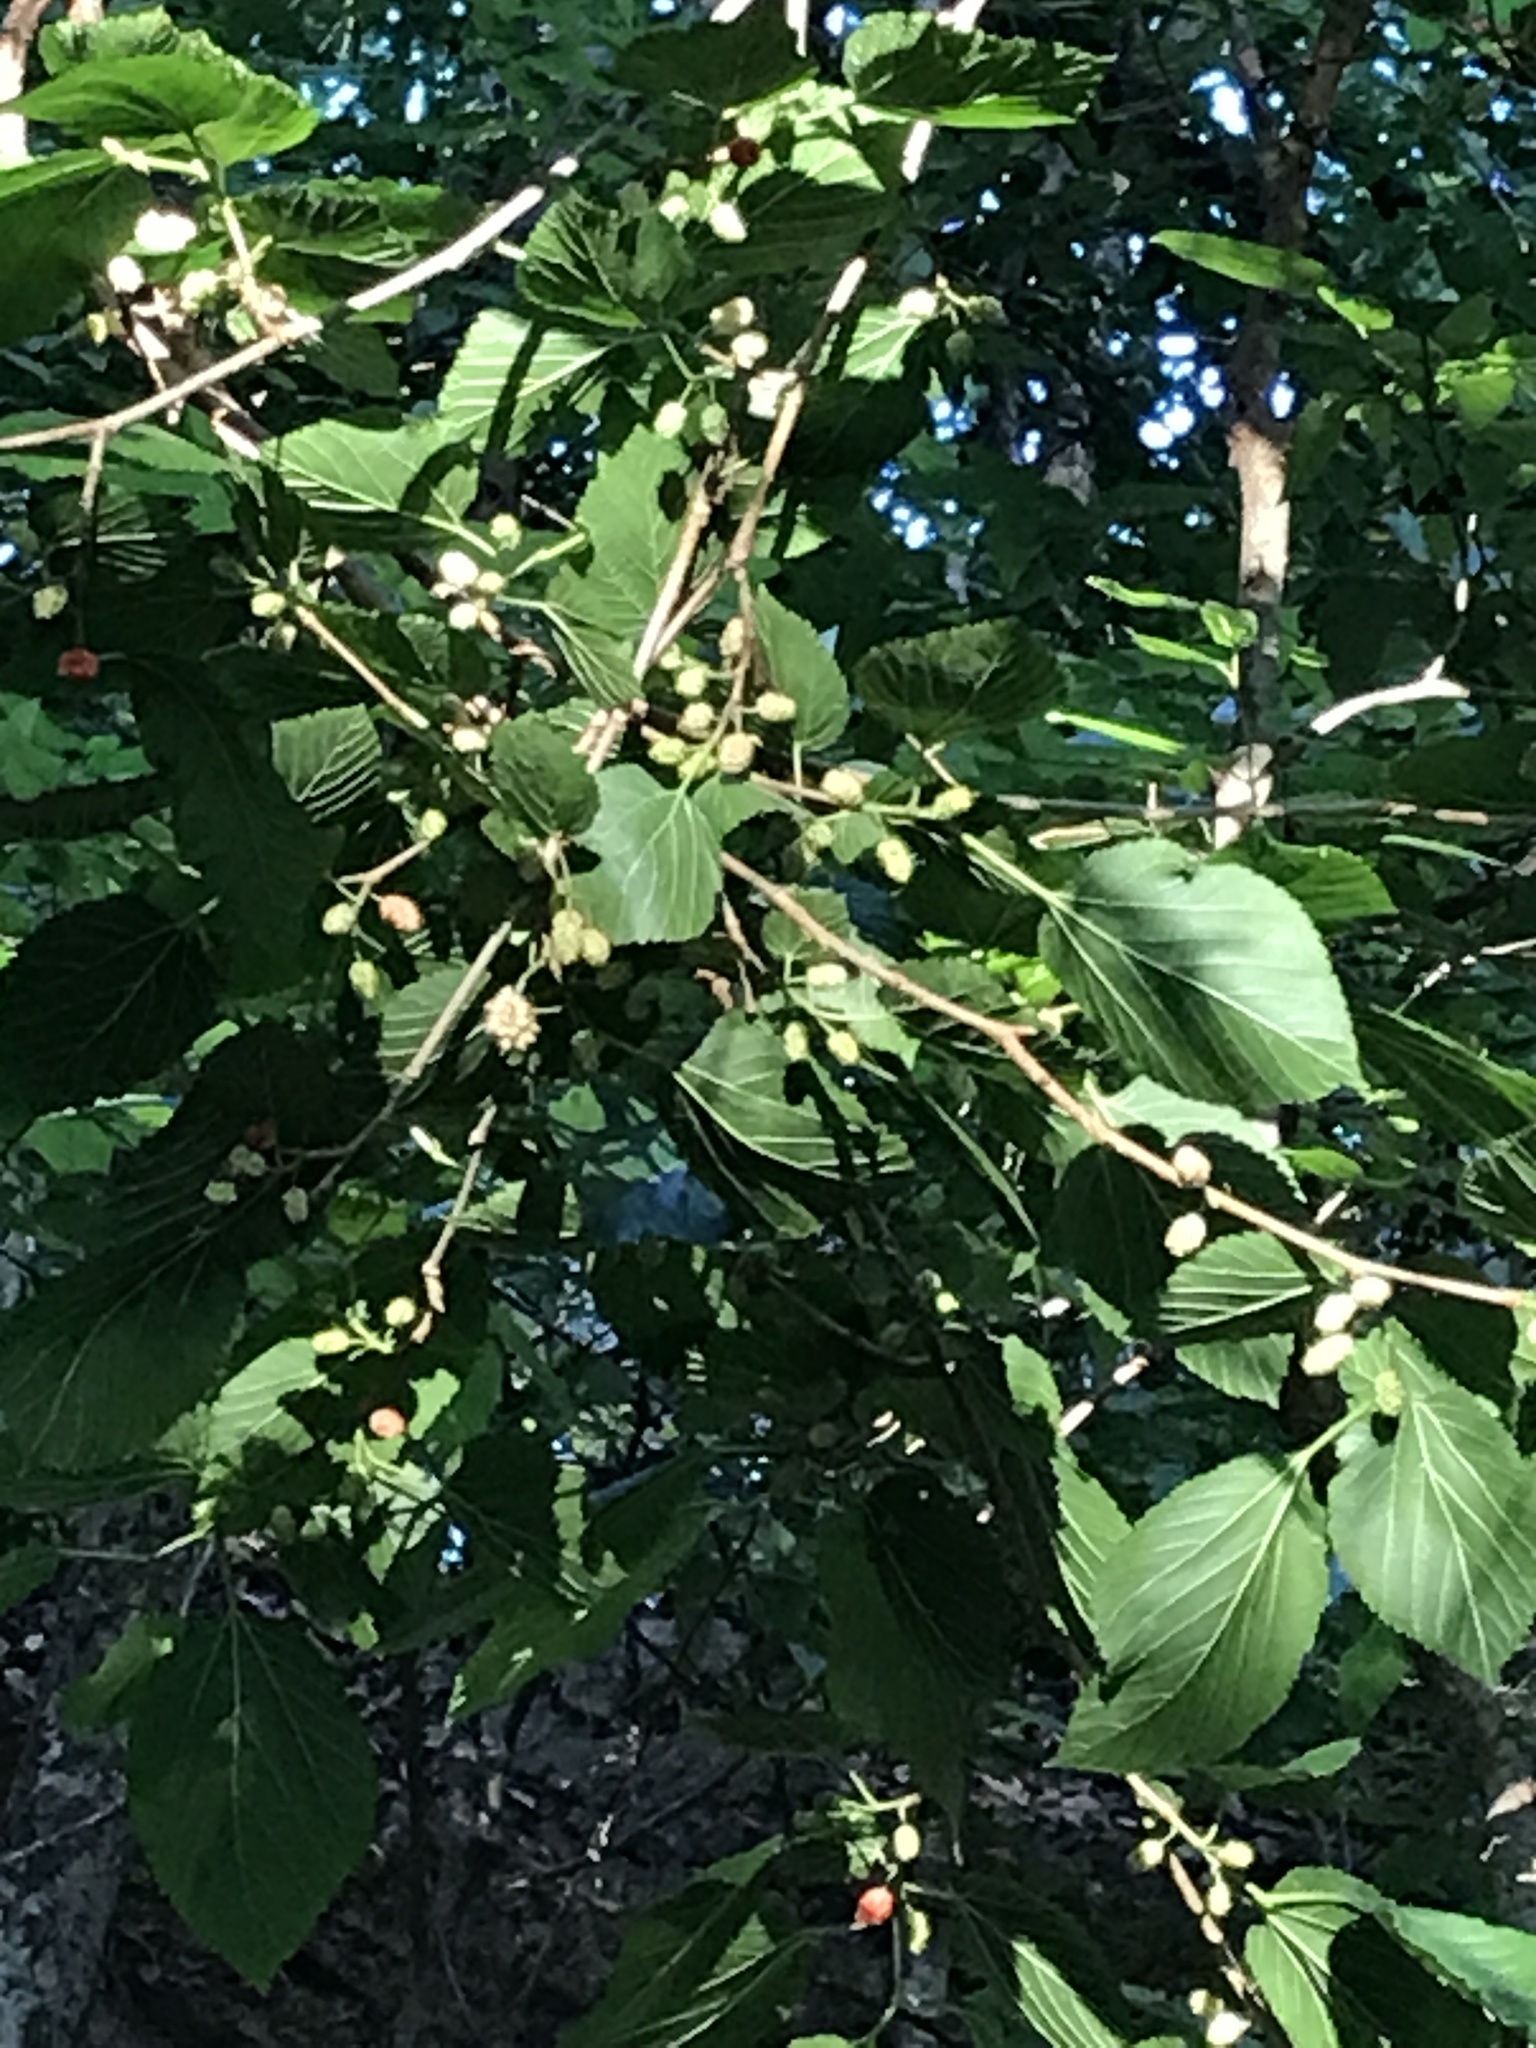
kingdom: Plantae
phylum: Tracheophyta
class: Magnoliopsida
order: Rosales
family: Moraceae
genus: Morus
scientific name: Morus rubra
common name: Red mulberry
